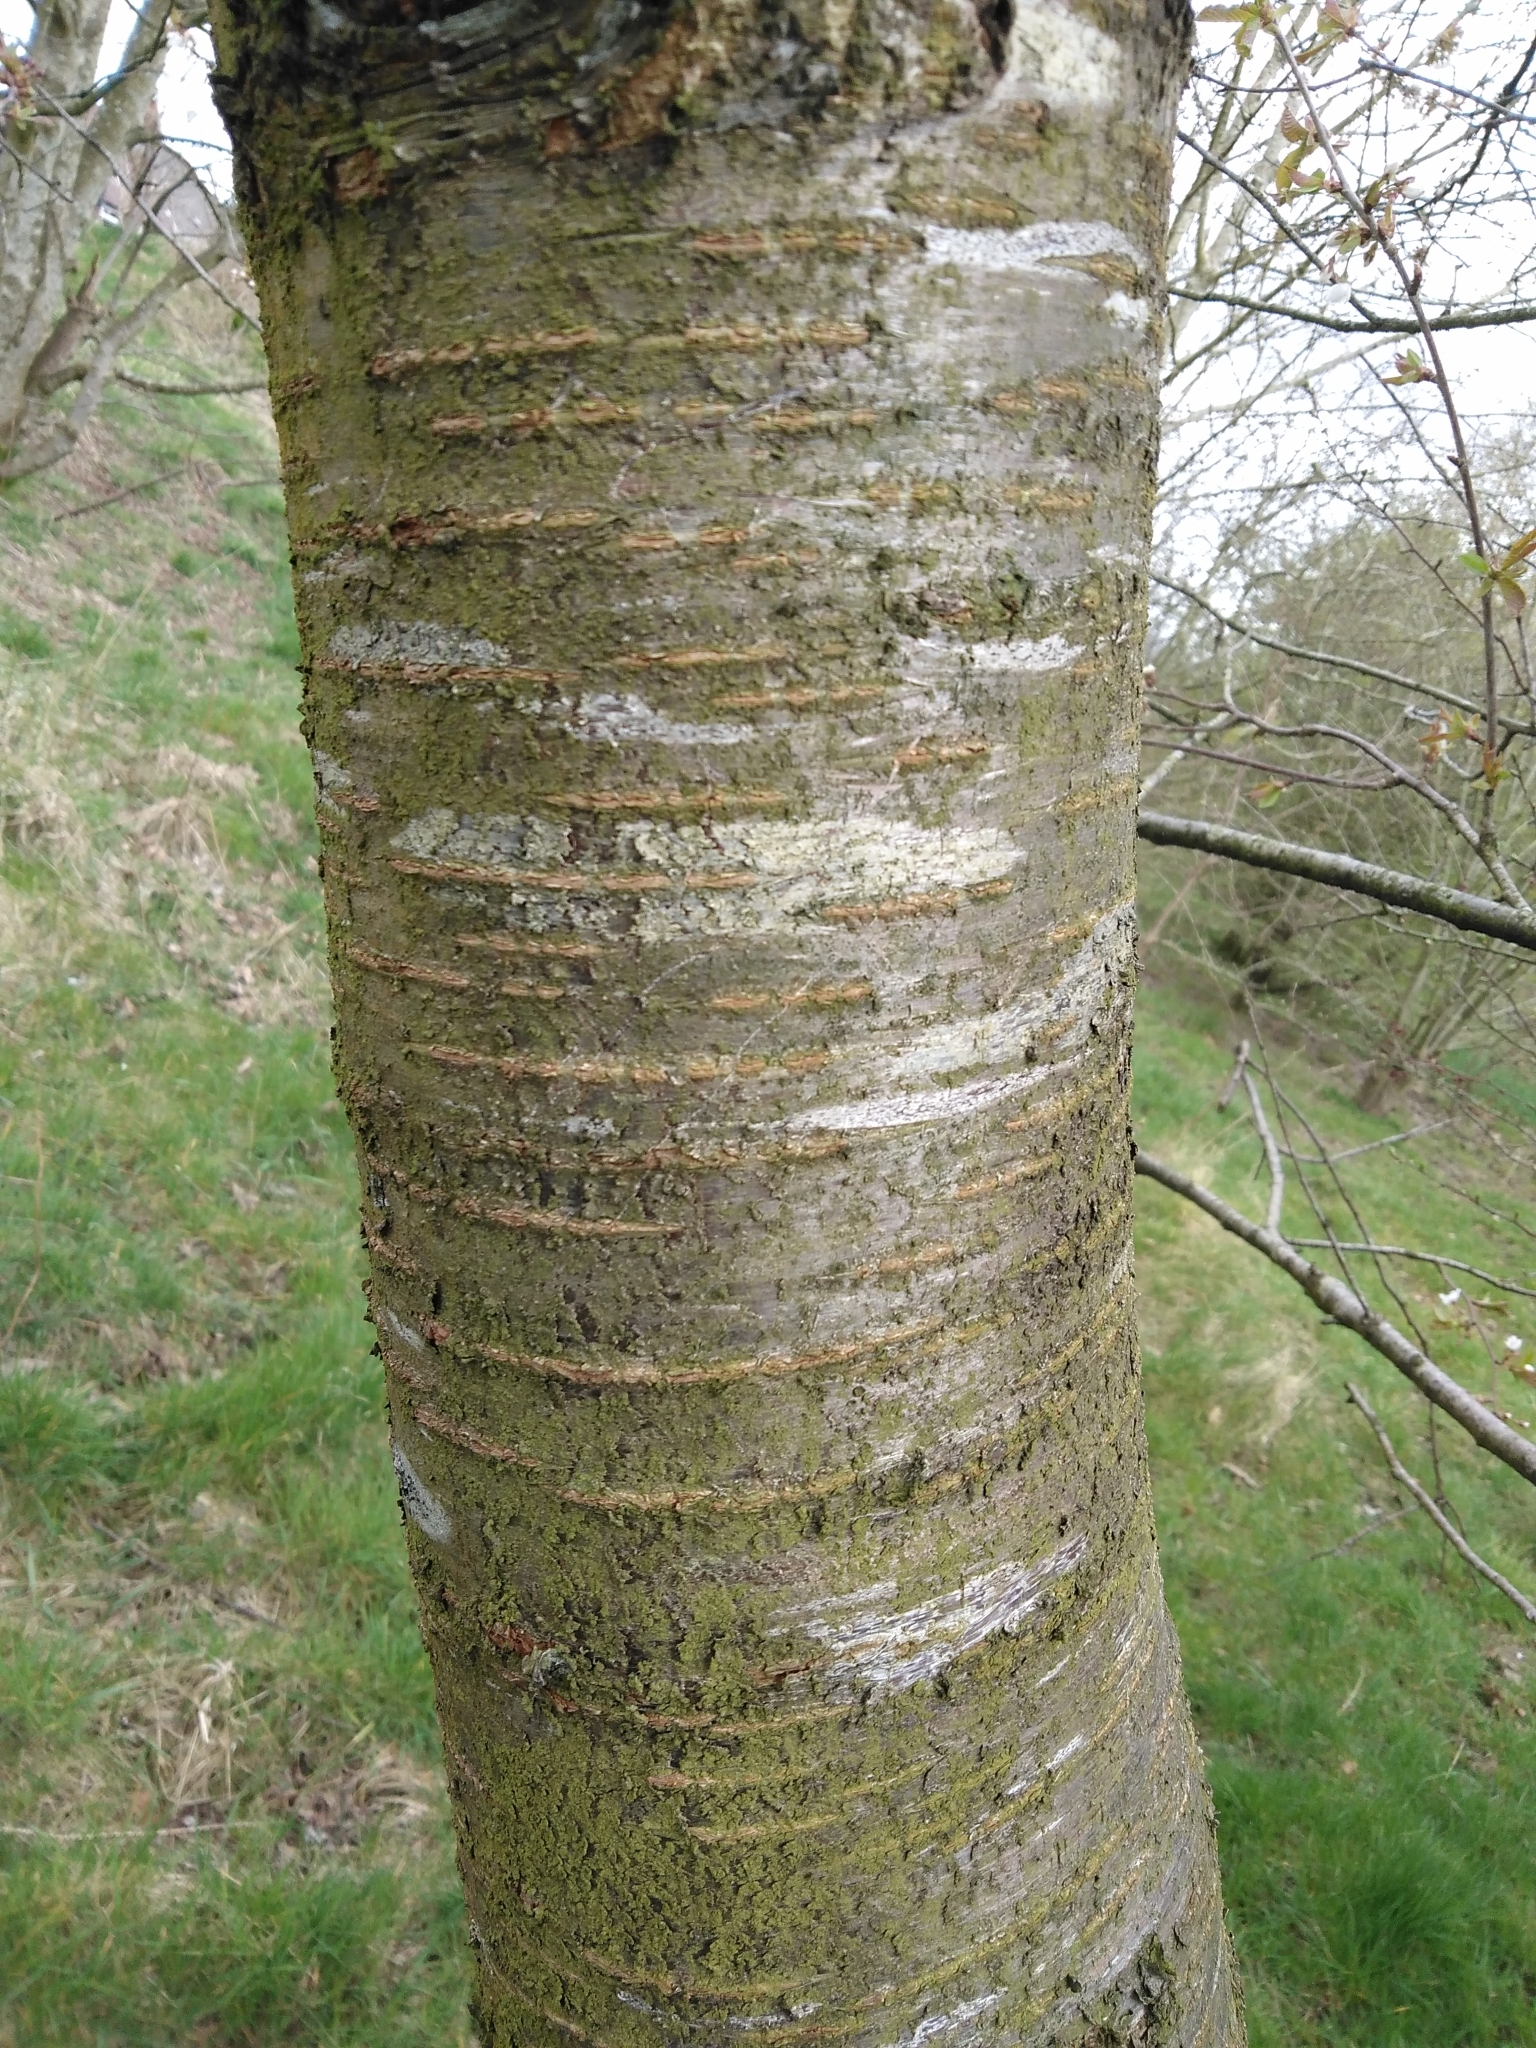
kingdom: Plantae
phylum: Tracheophyta
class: Magnoliopsida
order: Rosales
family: Rosaceae
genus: Prunus
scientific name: Prunus avium
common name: Sweet cherry
